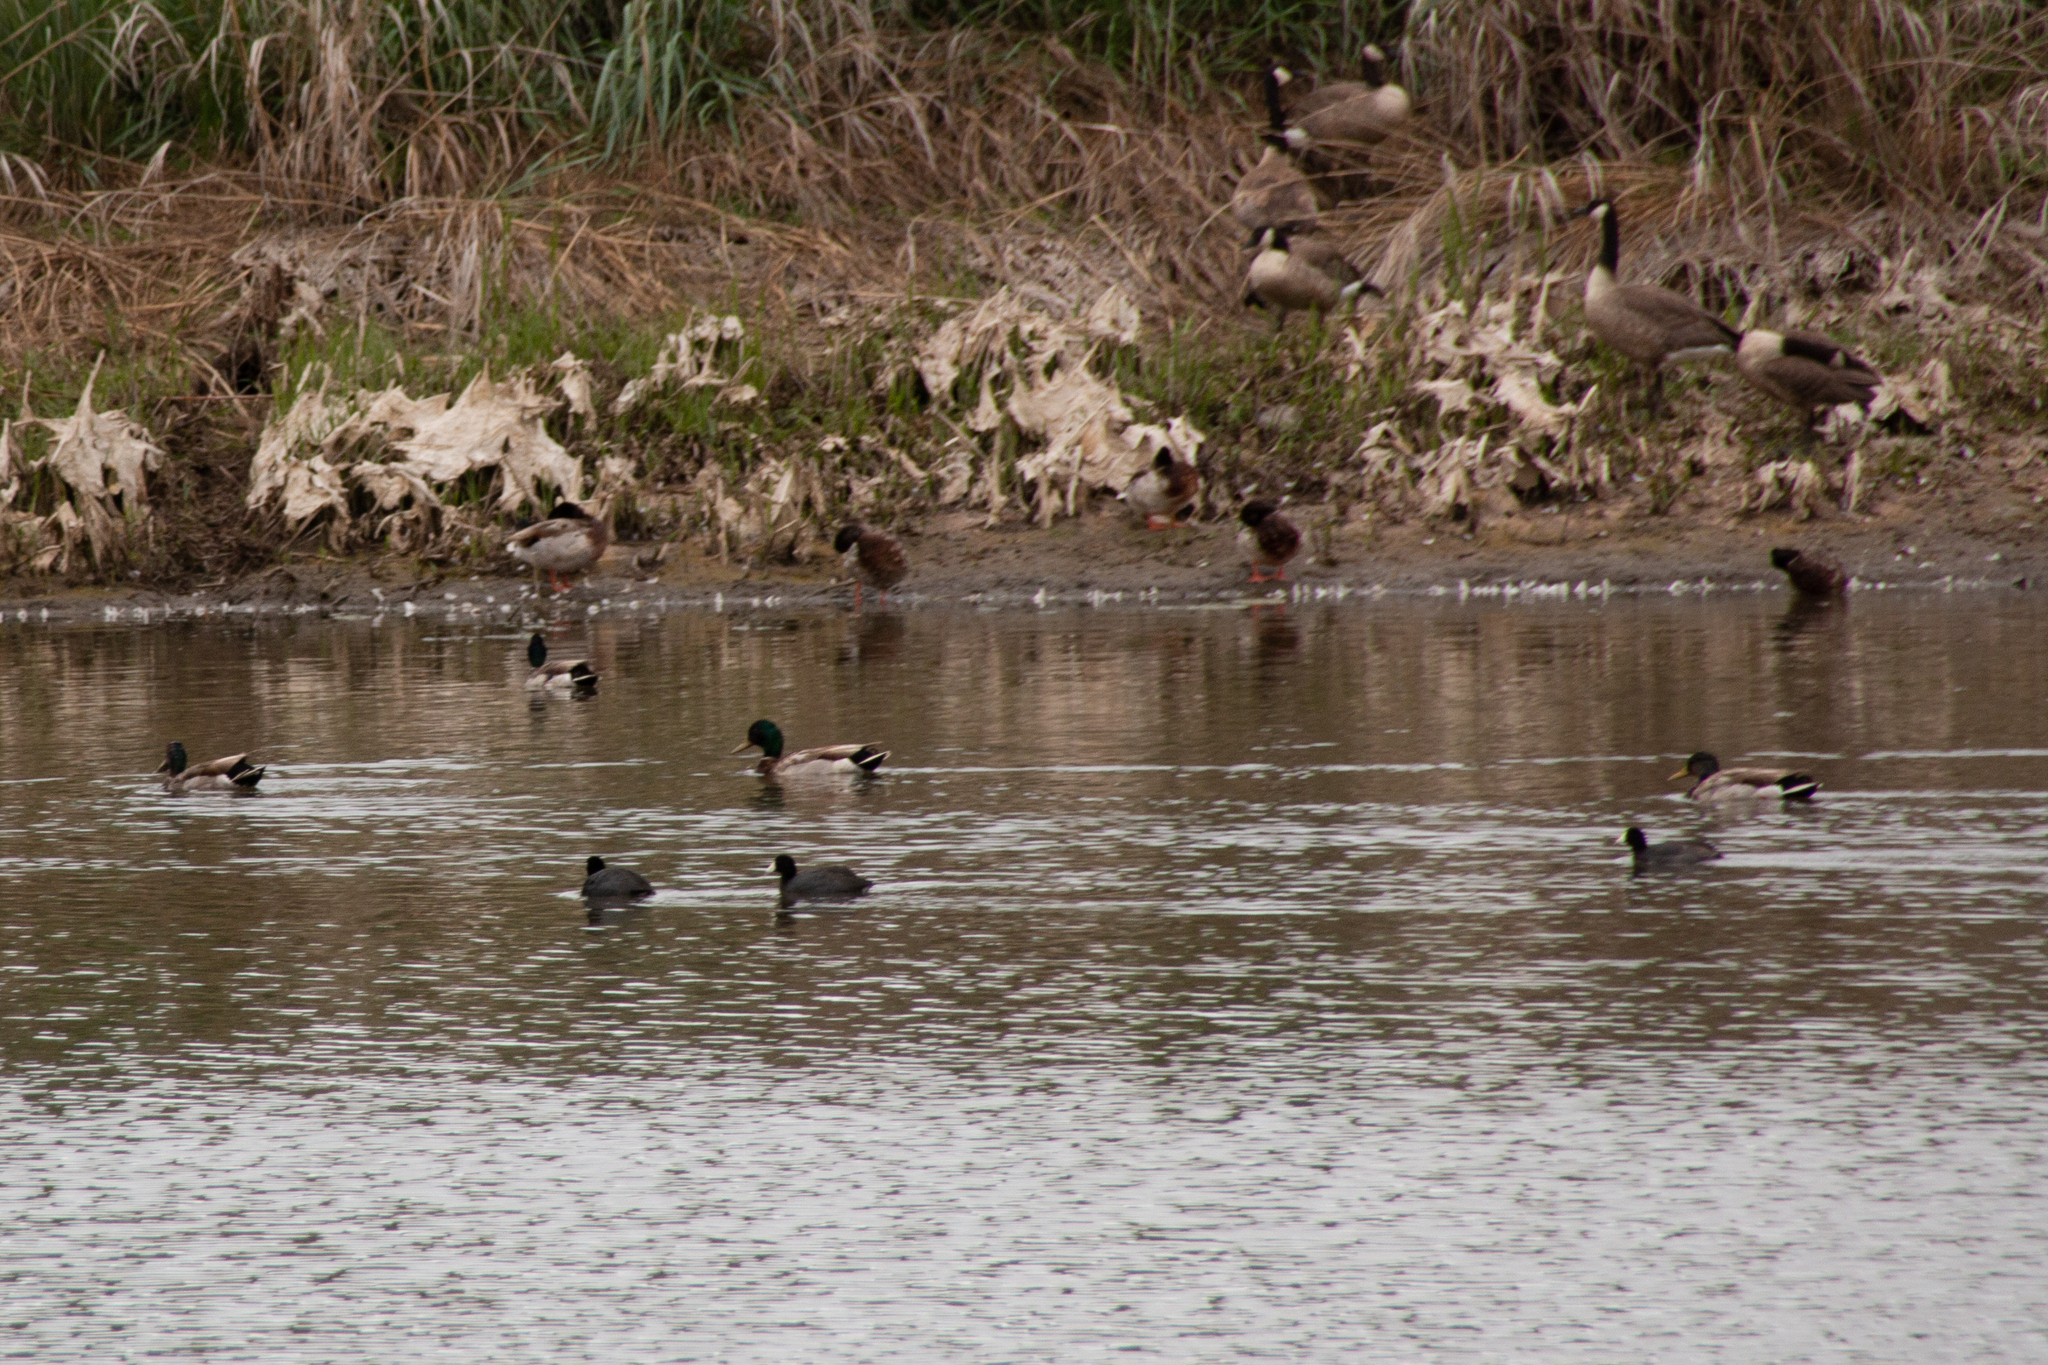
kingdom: Animalia
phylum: Chordata
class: Aves
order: Anseriformes
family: Anatidae
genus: Anas
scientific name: Anas platyrhynchos
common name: Mallard
